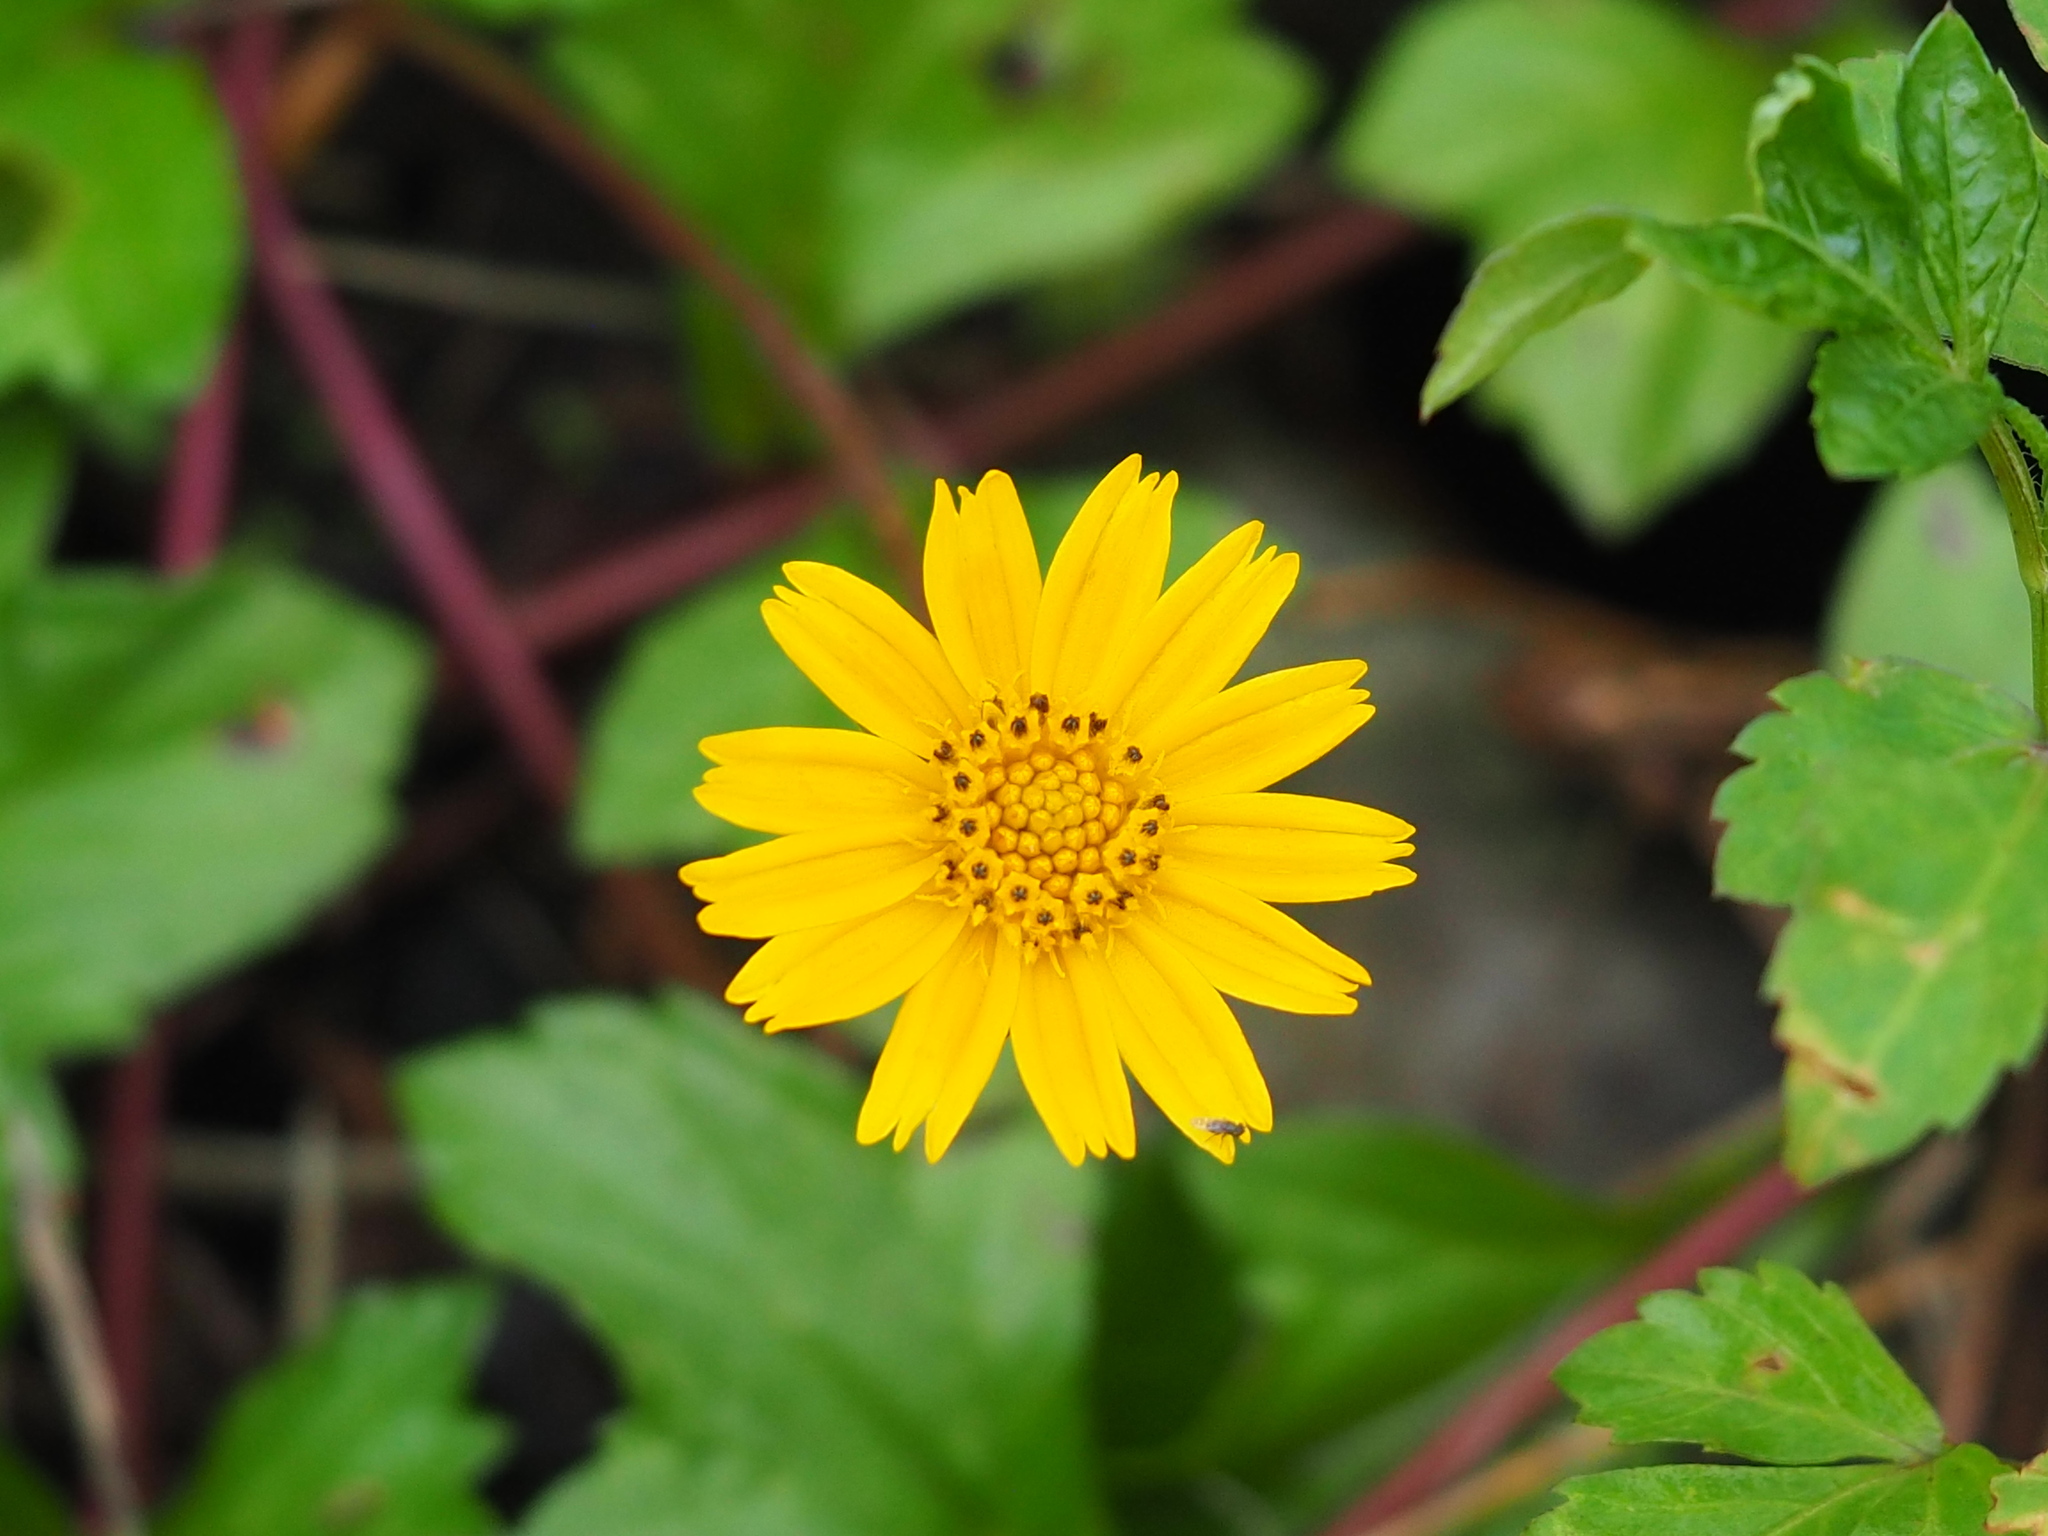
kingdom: Plantae
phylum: Tracheophyta
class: Magnoliopsida
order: Asterales
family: Asteraceae
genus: Sphagneticola
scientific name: Sphagneticola trilobata
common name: Bay biscayne creeping-oxeye
